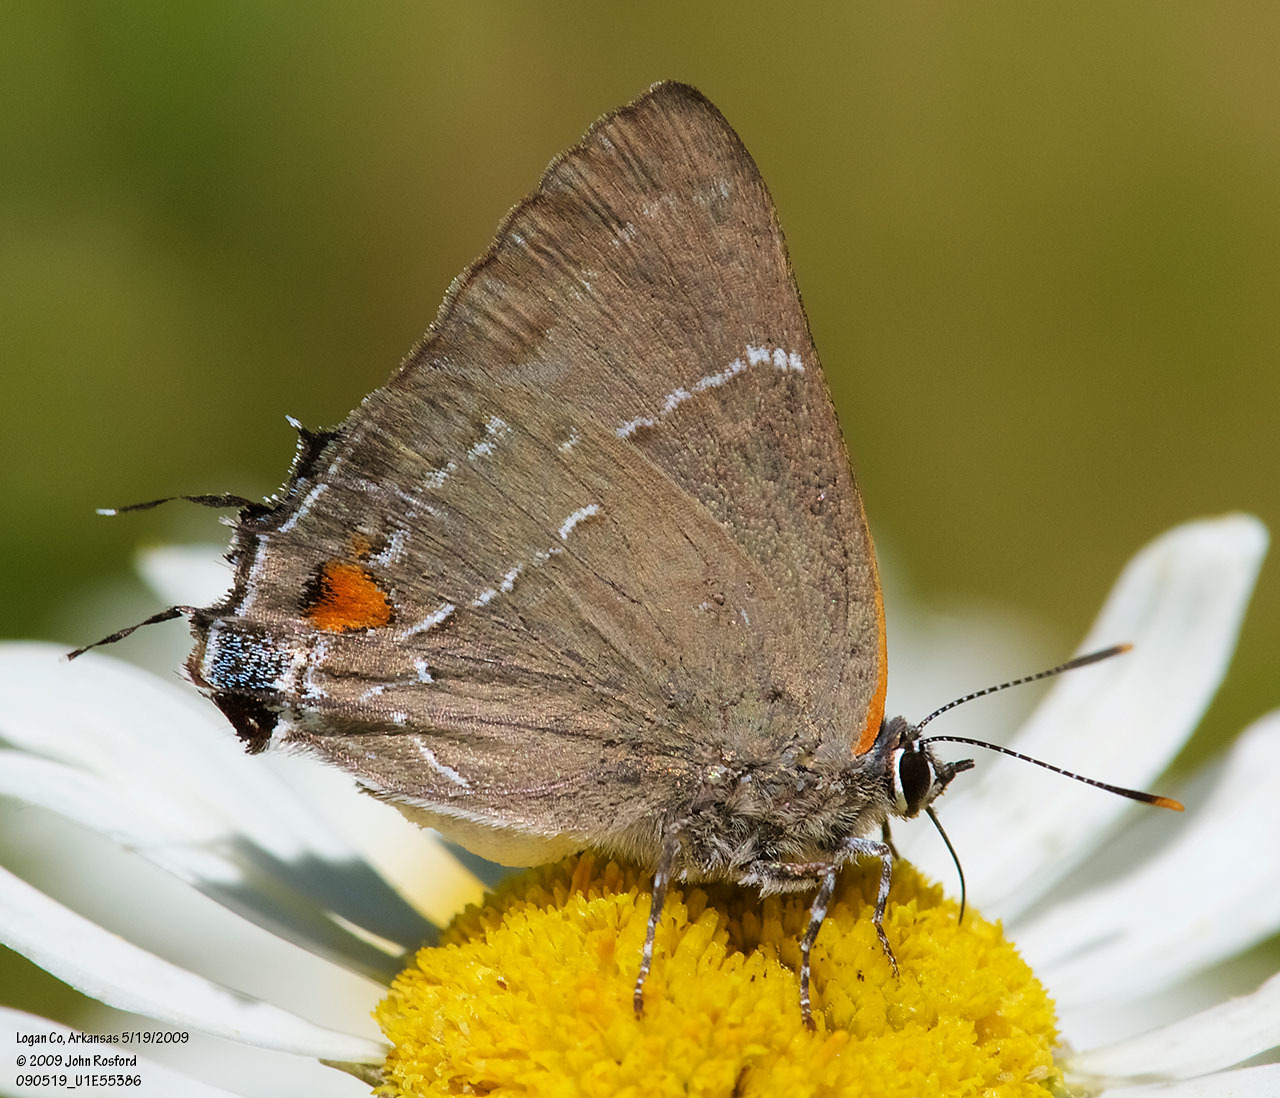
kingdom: Animalia
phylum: Arthropoda
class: Insecta
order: Lepidoptera
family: Lycaenidae
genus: Parrhasius
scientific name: Parrhasius m-album
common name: White m hairstreak
